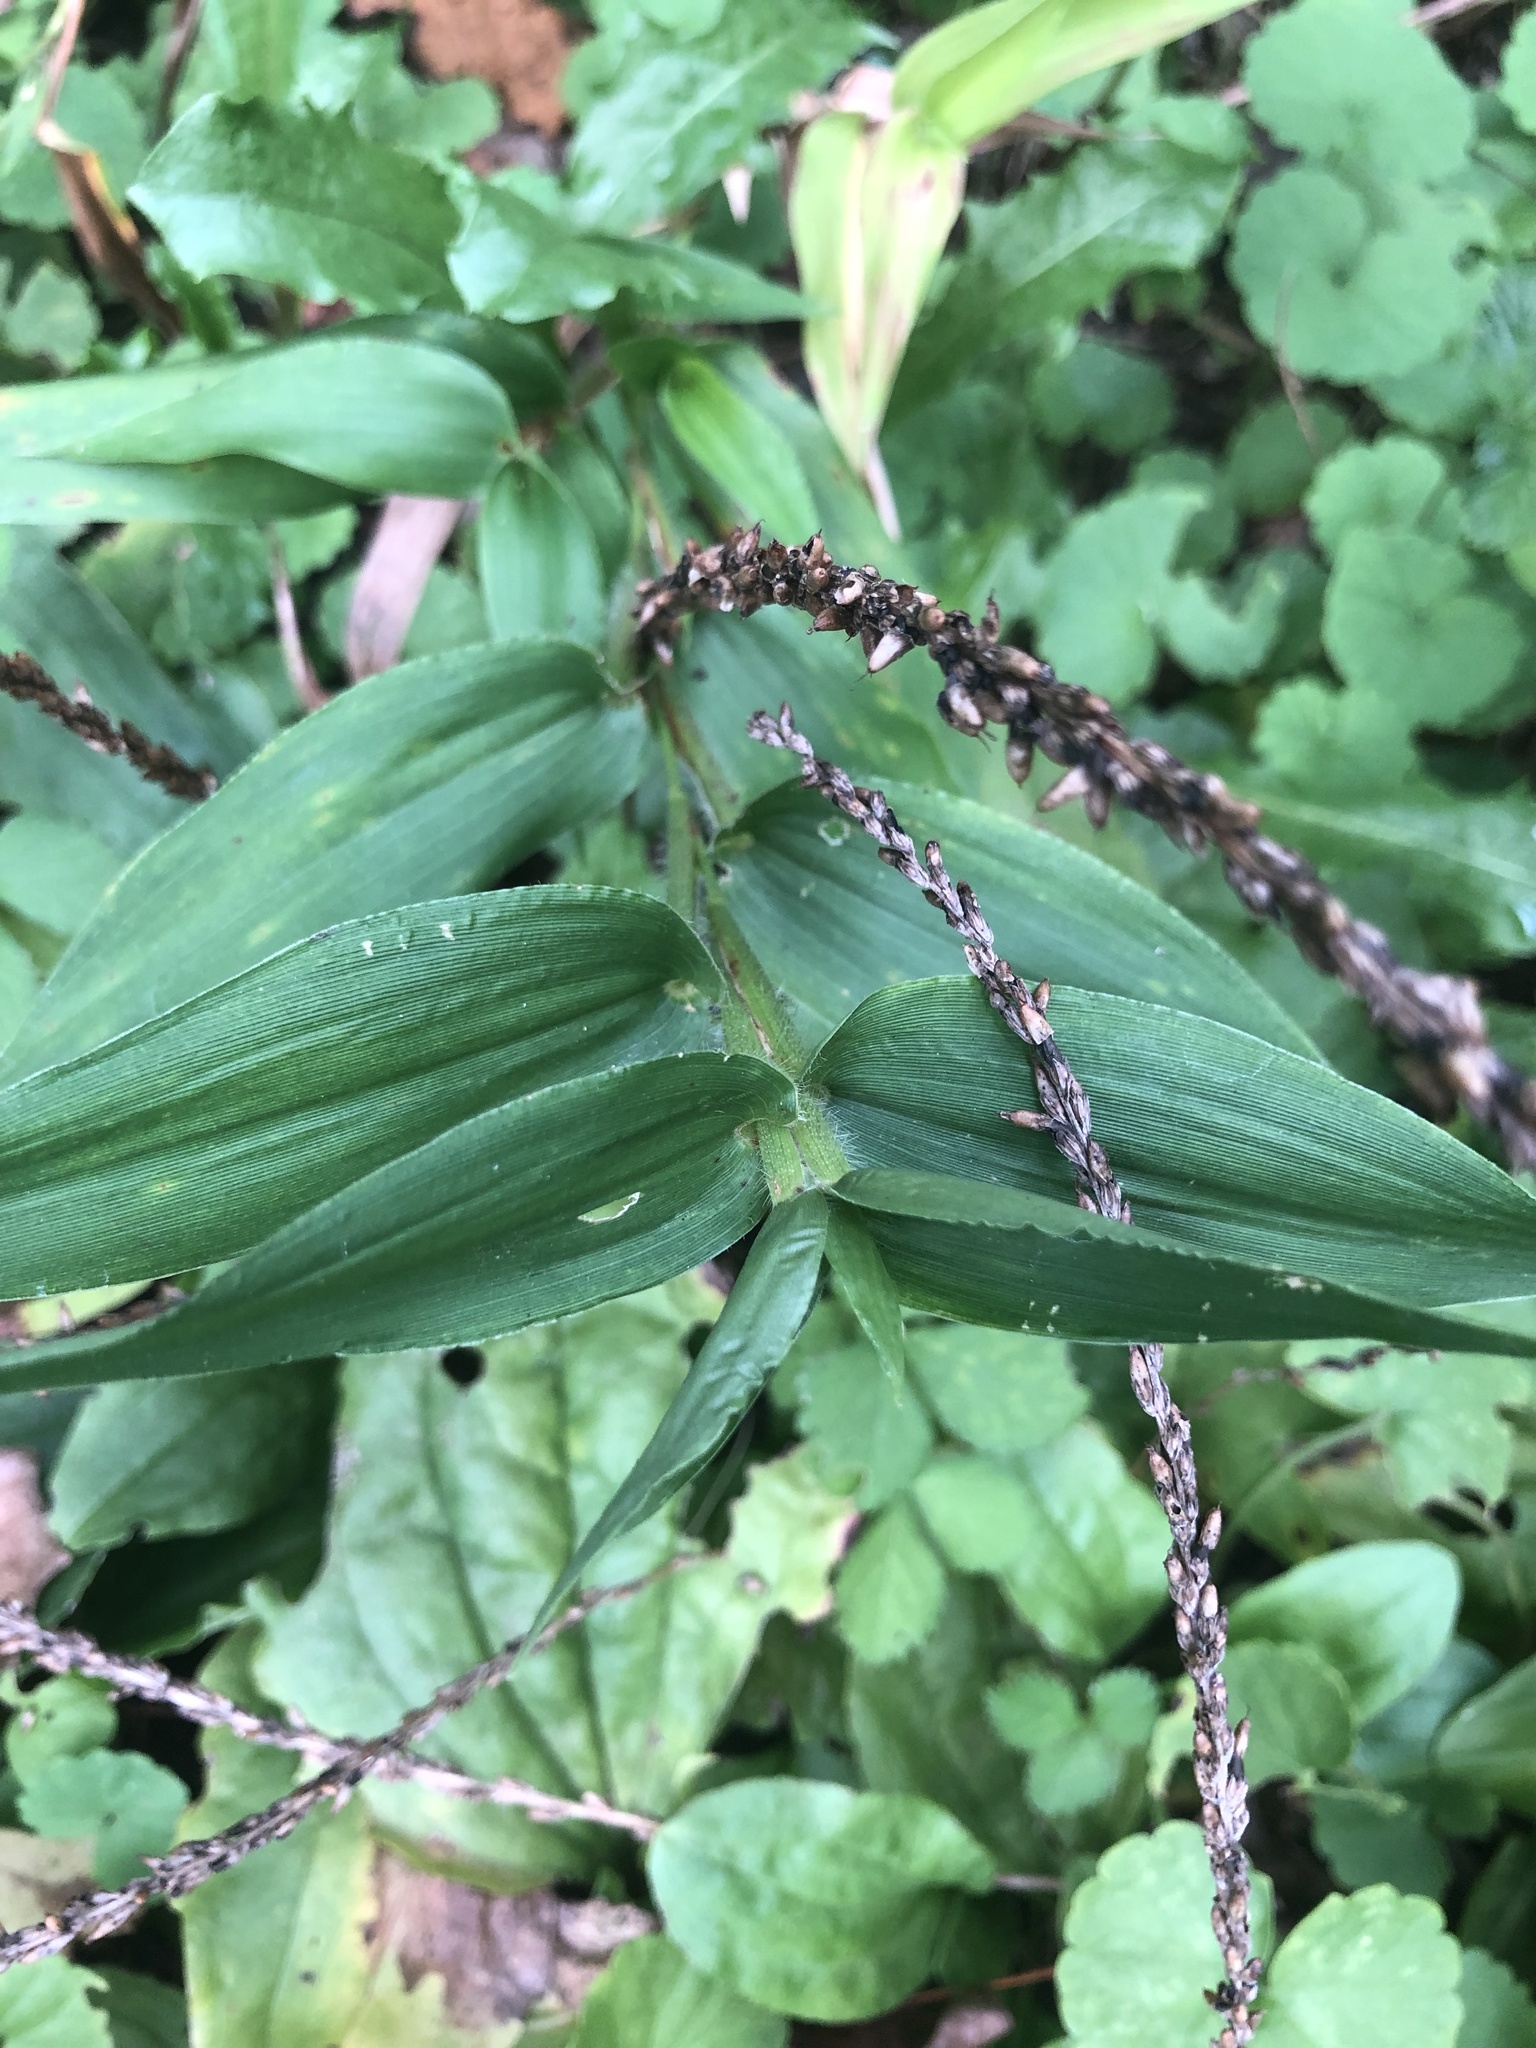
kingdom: Plantae
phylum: Tracheophyta
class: Liliopsida
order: Poales
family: Poaceae
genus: Dichanthelium
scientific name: Dichanthelium clandestinum
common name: Deer-tongue grass
